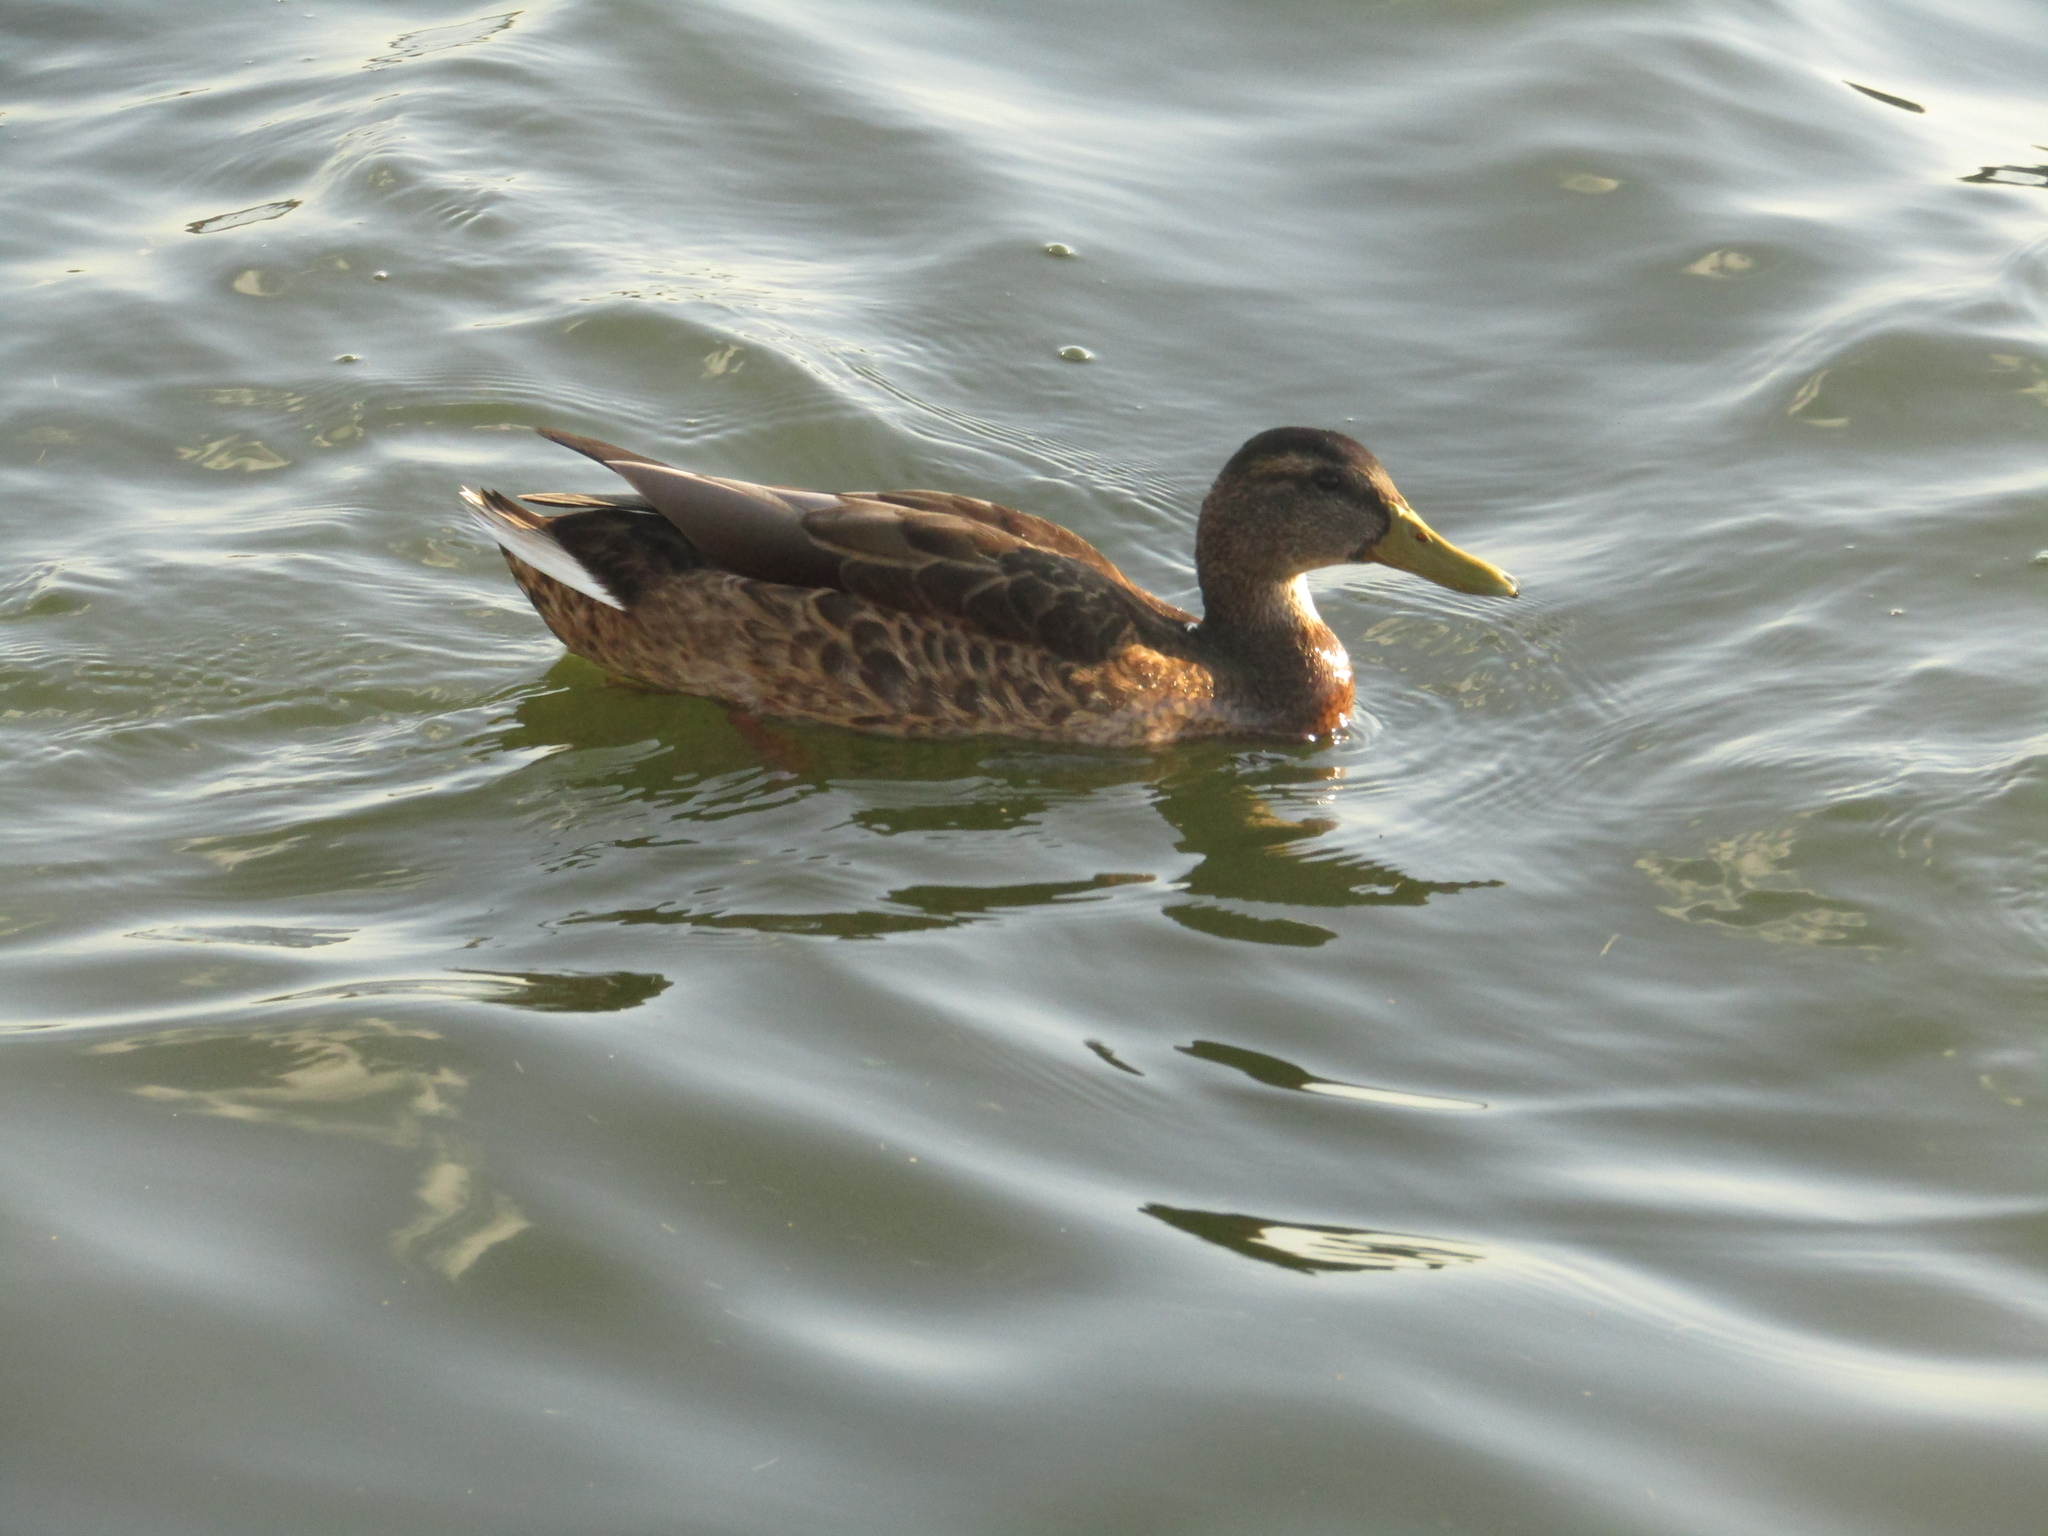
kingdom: Animalia
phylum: Chordata
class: Aves
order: Anseriformes
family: Anatidae
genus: Anas
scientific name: Anas platyrhynchos
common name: Mallard
